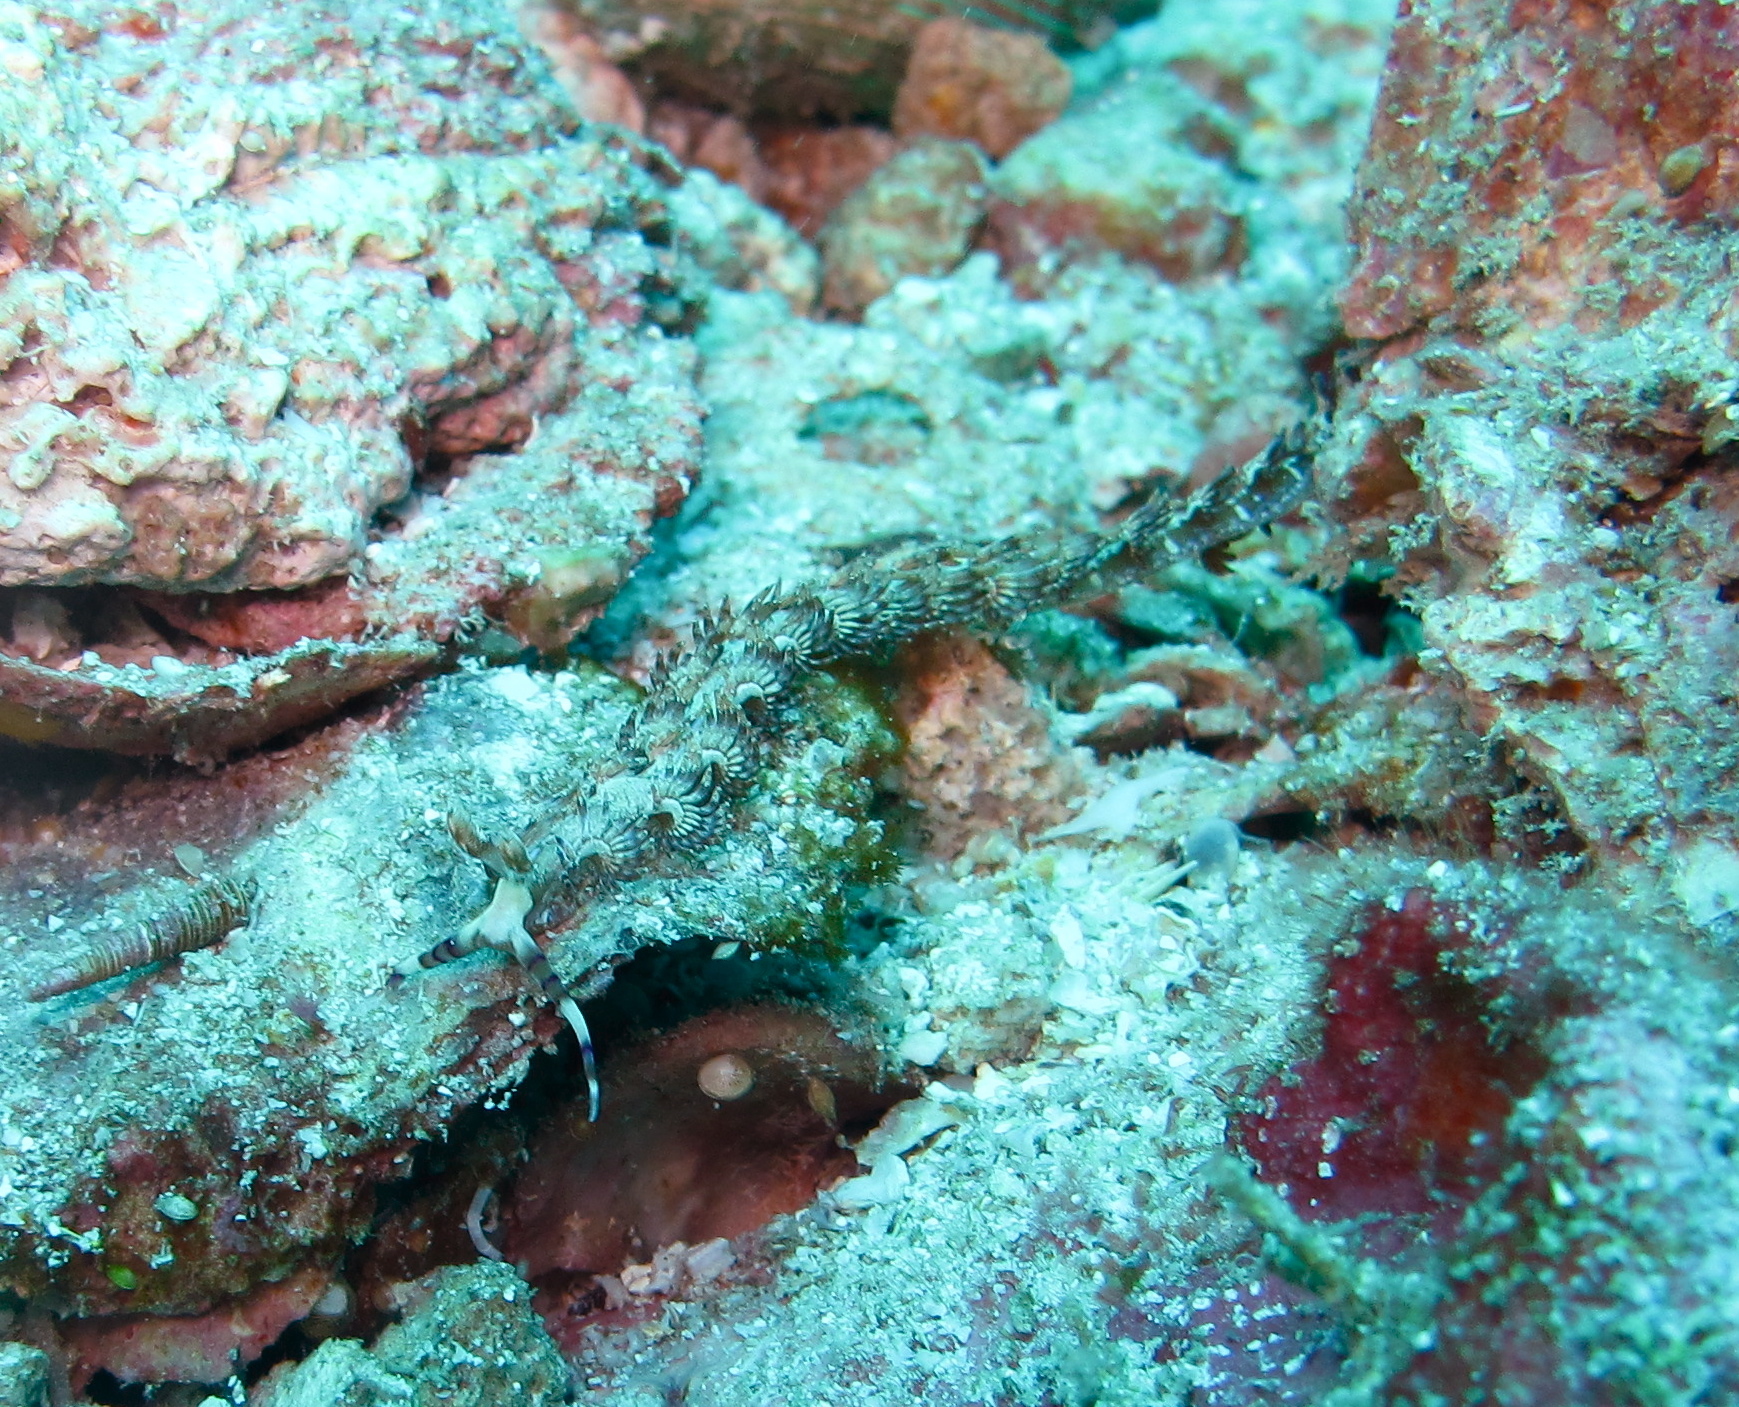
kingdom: Animalia
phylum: Mollusca
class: Gastropoda
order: Nudibranchia
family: Facelinidae
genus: Pteraeolidia
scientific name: Pteraeolidia semperi
